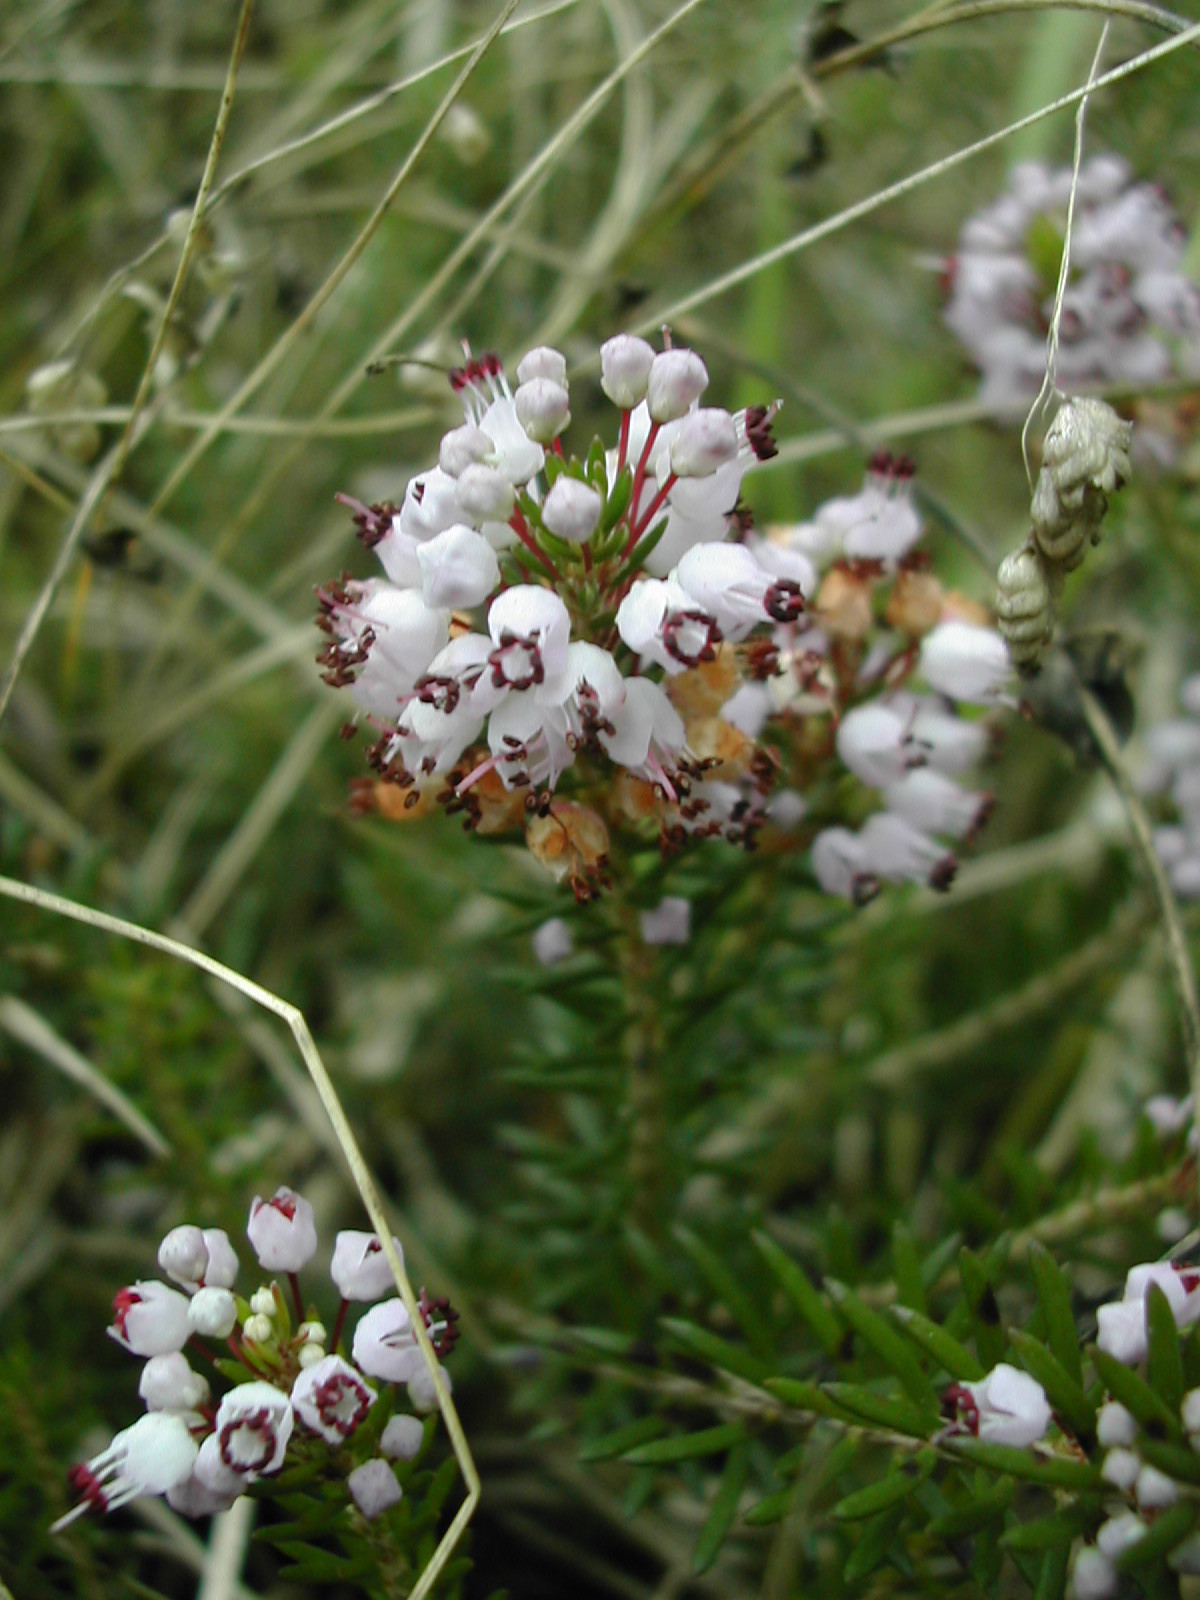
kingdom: Plantae
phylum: Tracheophyta
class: Magnoliopsida
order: Ericales
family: Ericaceae
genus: Erica
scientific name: Erica vagans
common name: Cornish heath
